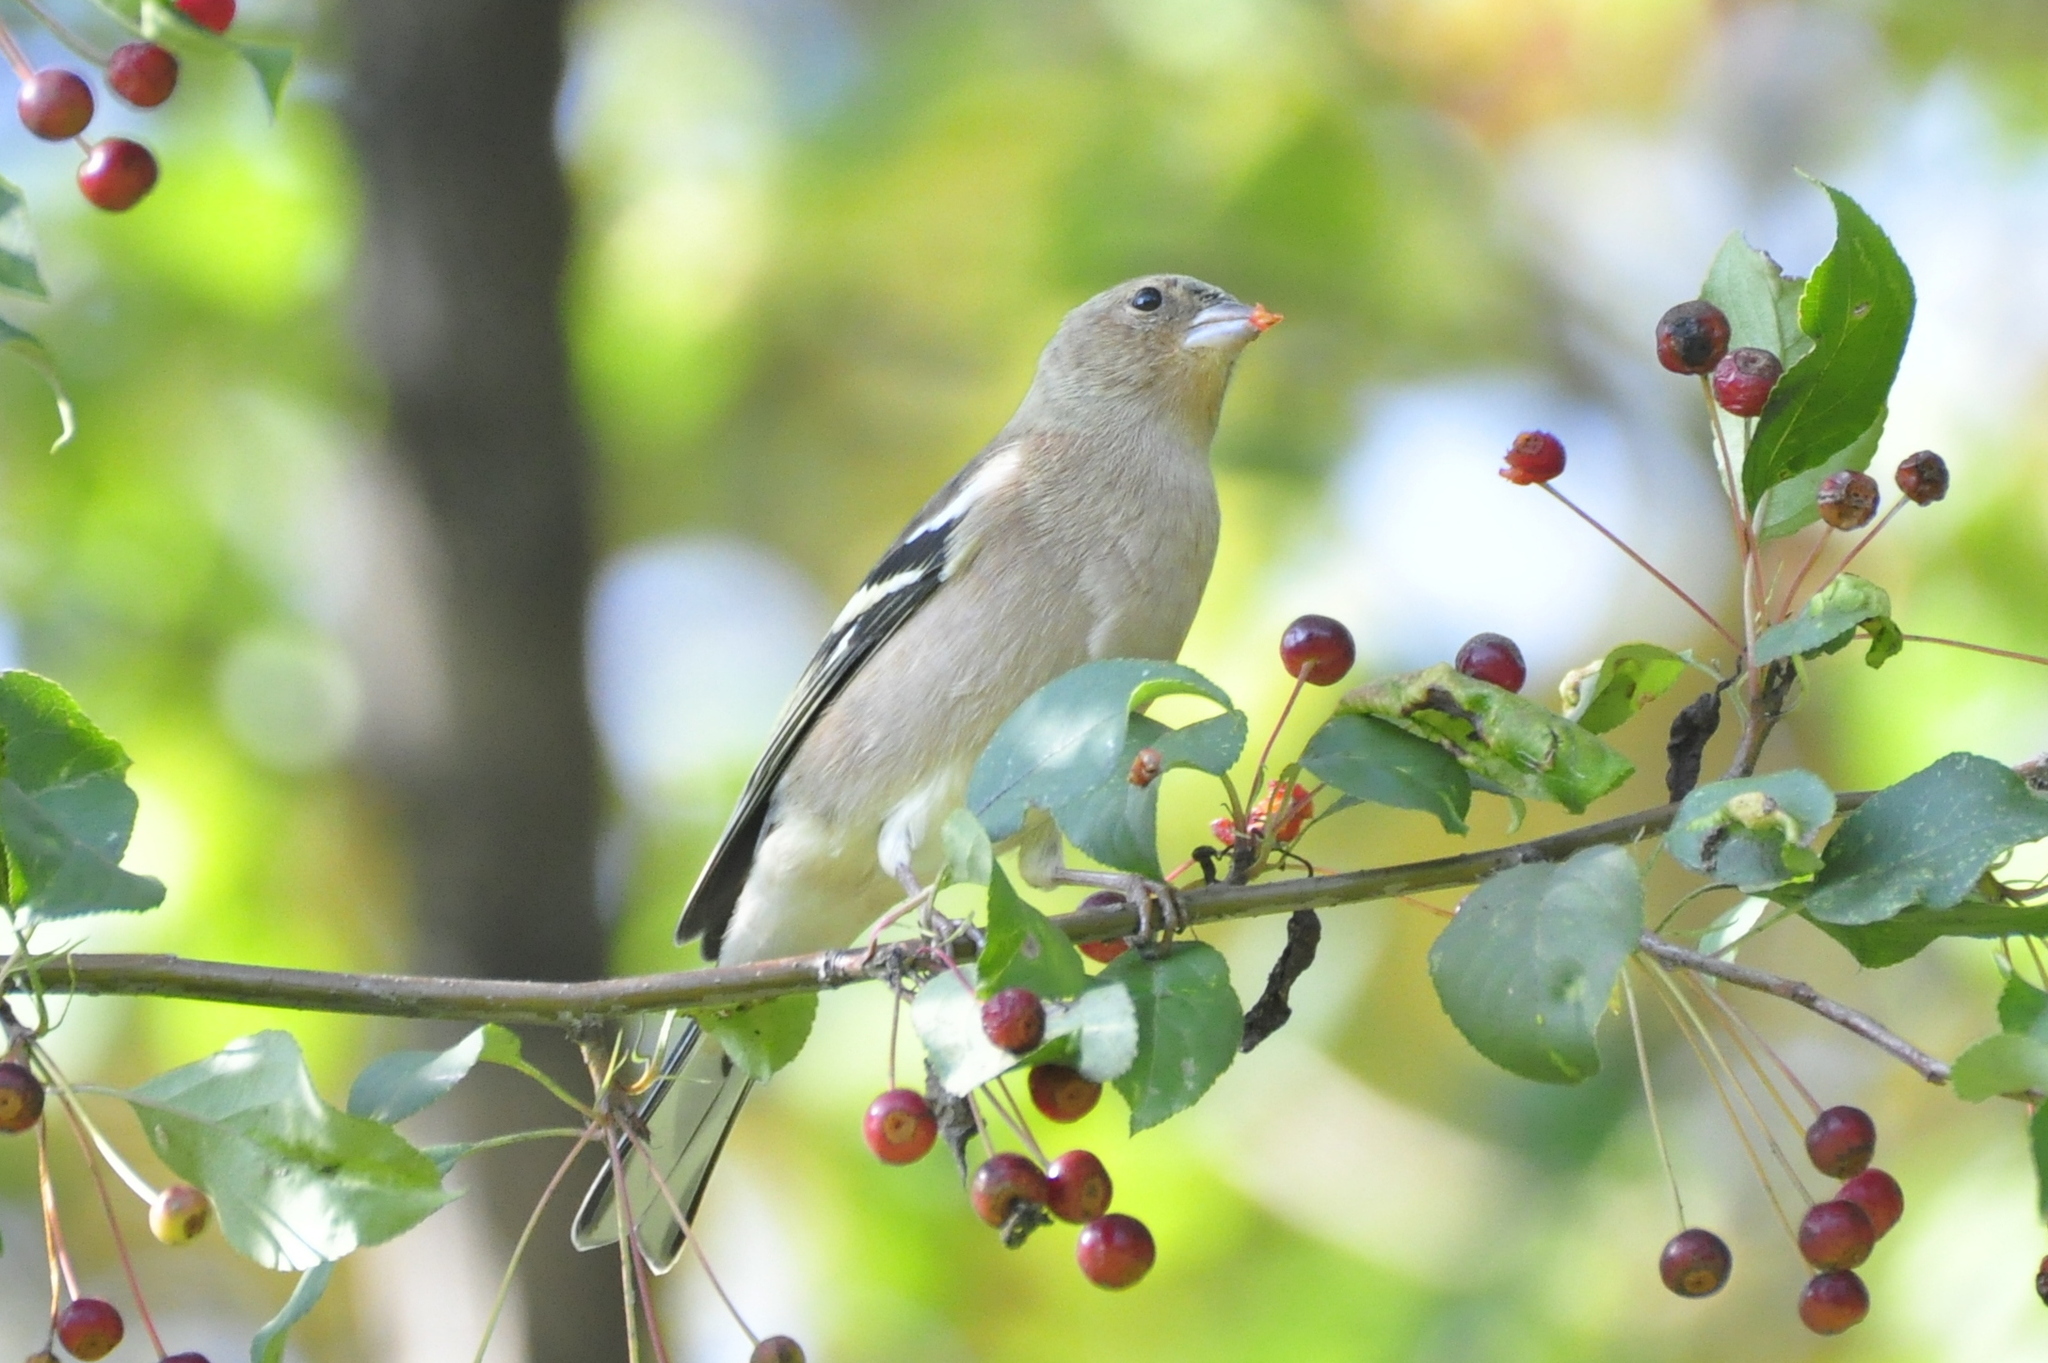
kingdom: Animalia
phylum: Chordata
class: Aves
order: Passeriformes
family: Fringillidae
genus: Fringilla
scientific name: Fringilla coelebs
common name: Common chaffinch
